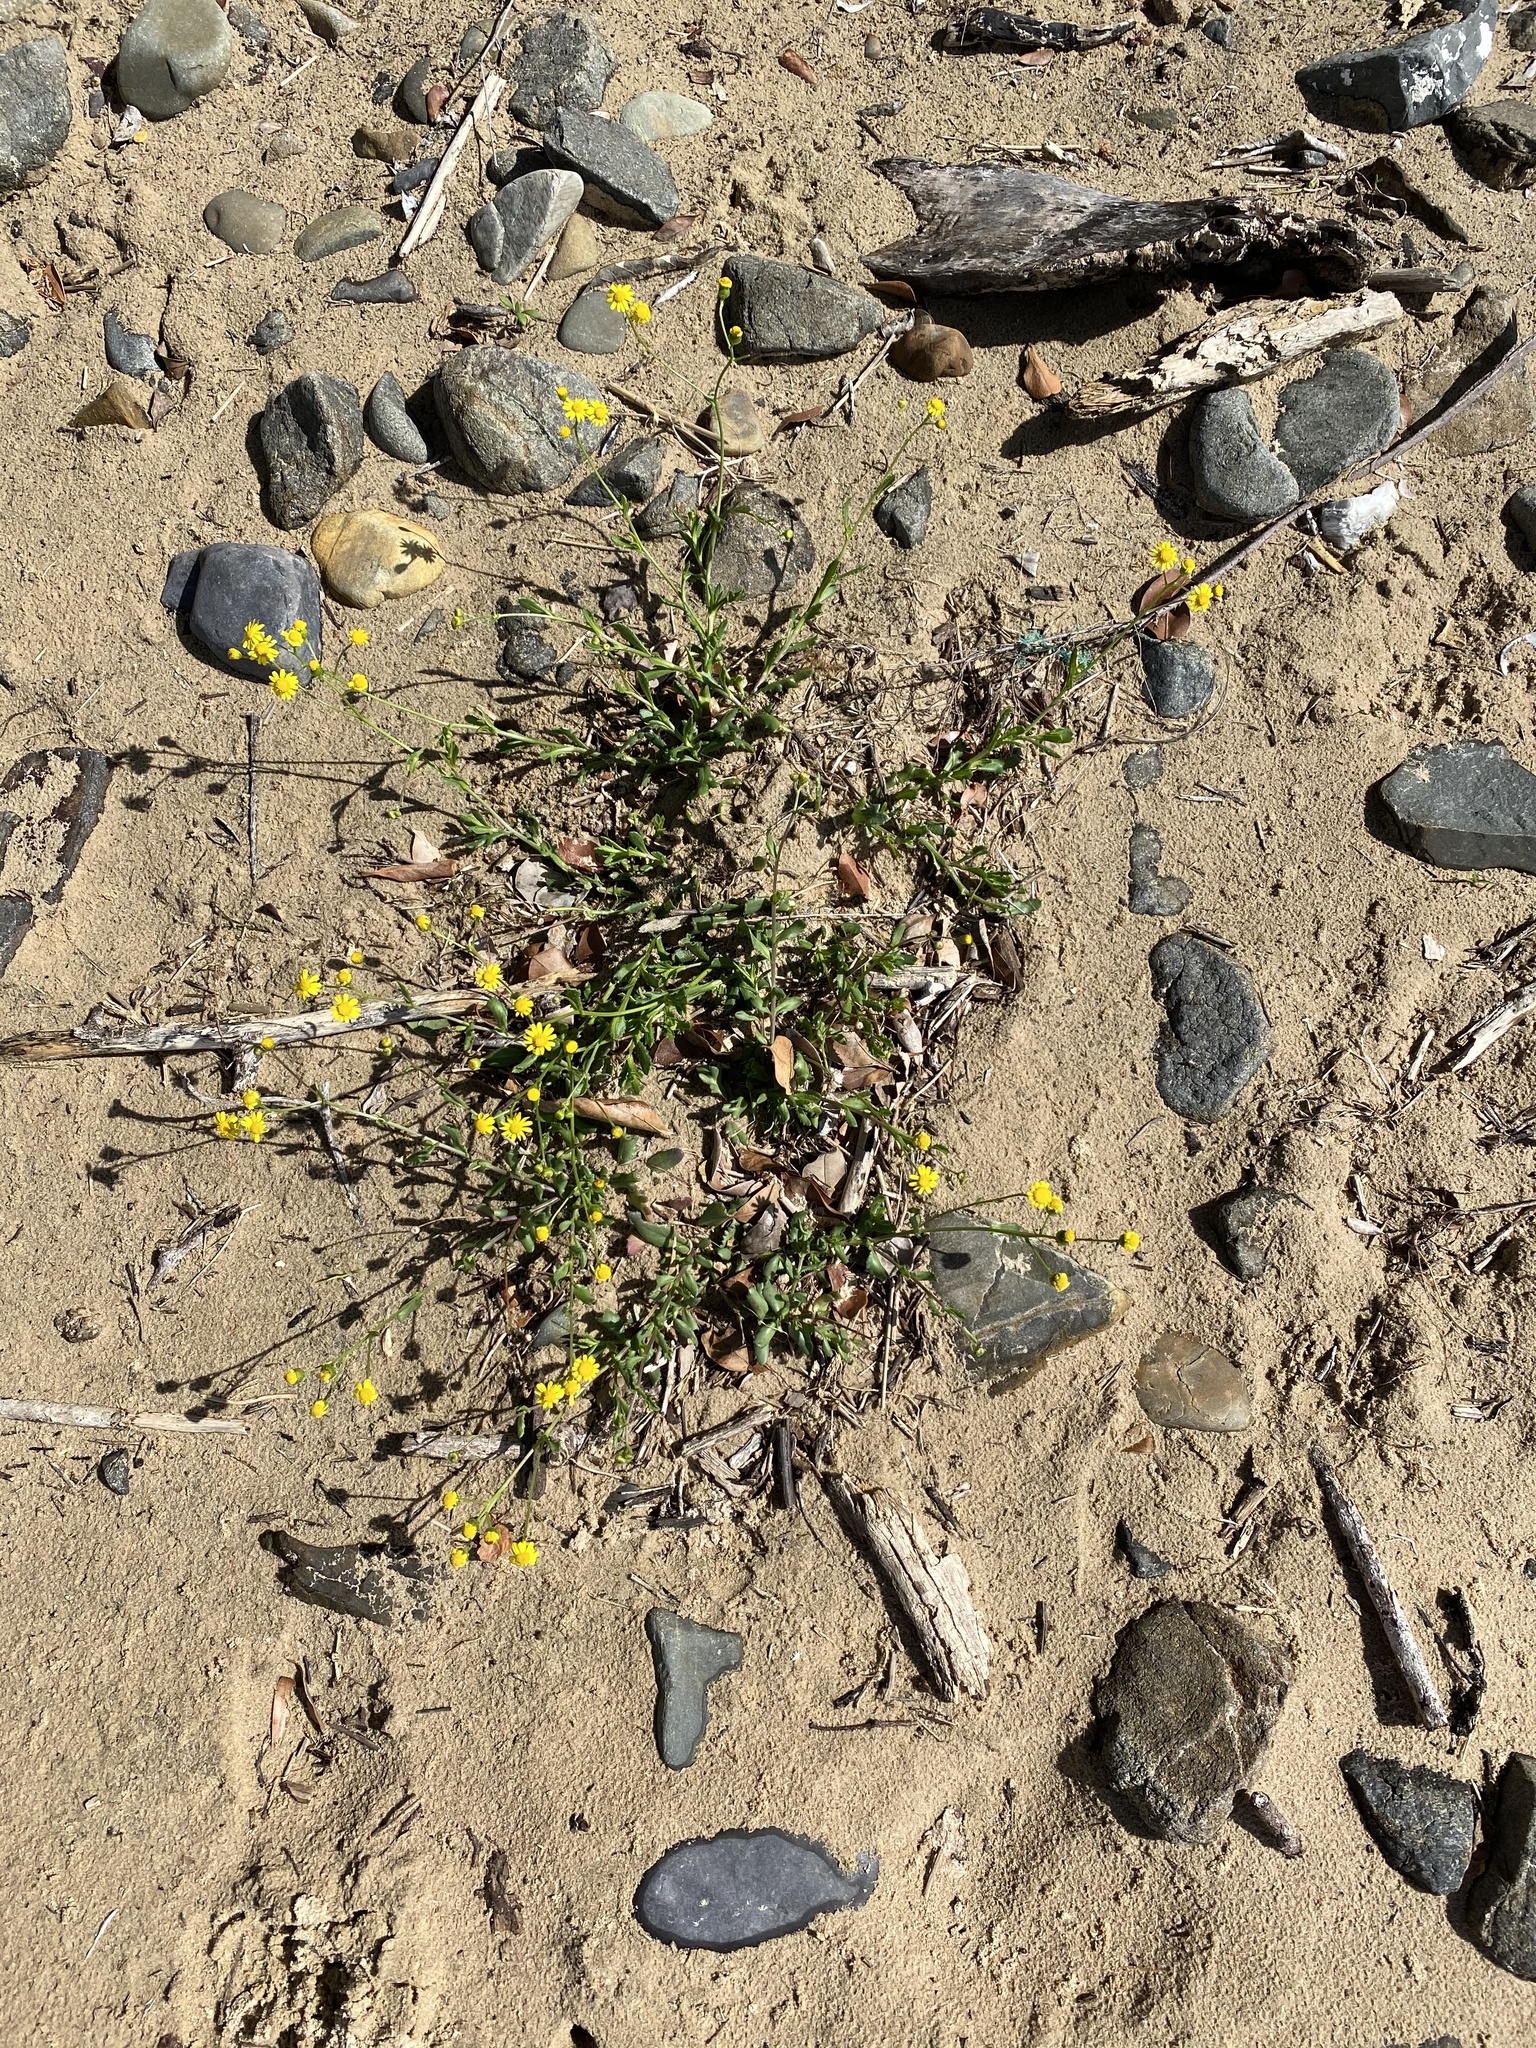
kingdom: Plantae
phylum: Tracheophyta
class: Magnoliopsida
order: Asterales
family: Asteraceae
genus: Senecio
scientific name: Senecio litorosus
